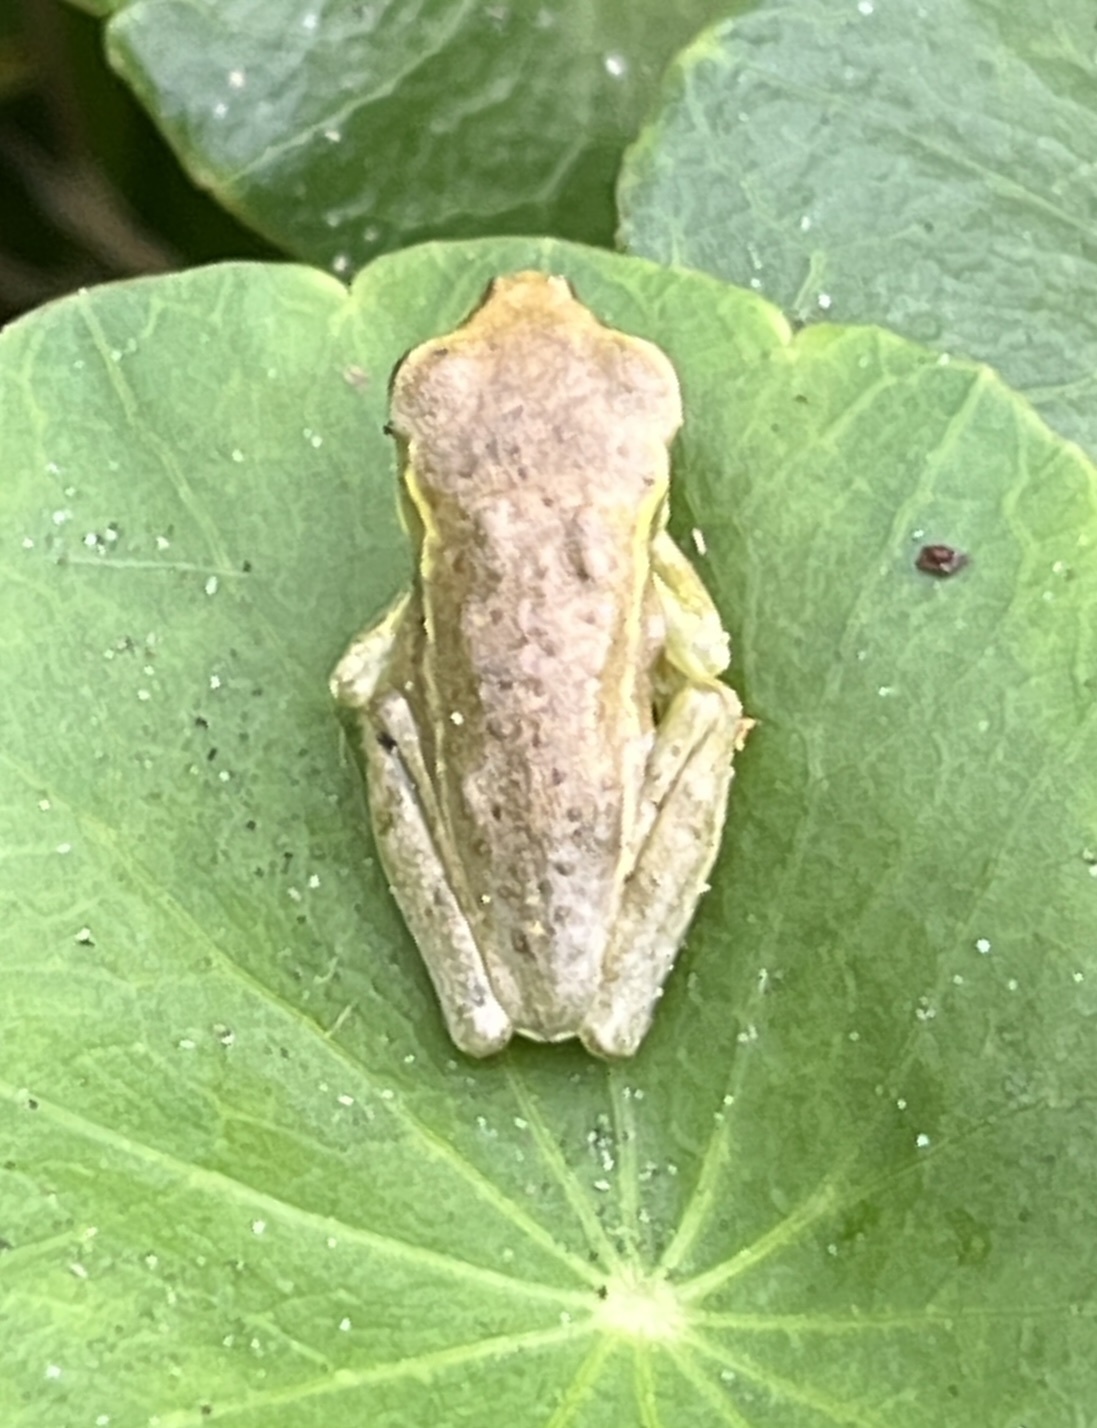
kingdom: Animalia
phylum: Chordata
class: Amphibia
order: Anura
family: Hylidae
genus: Osteopilus
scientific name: Osteopilus septentrionalis
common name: Cuban treefrog
